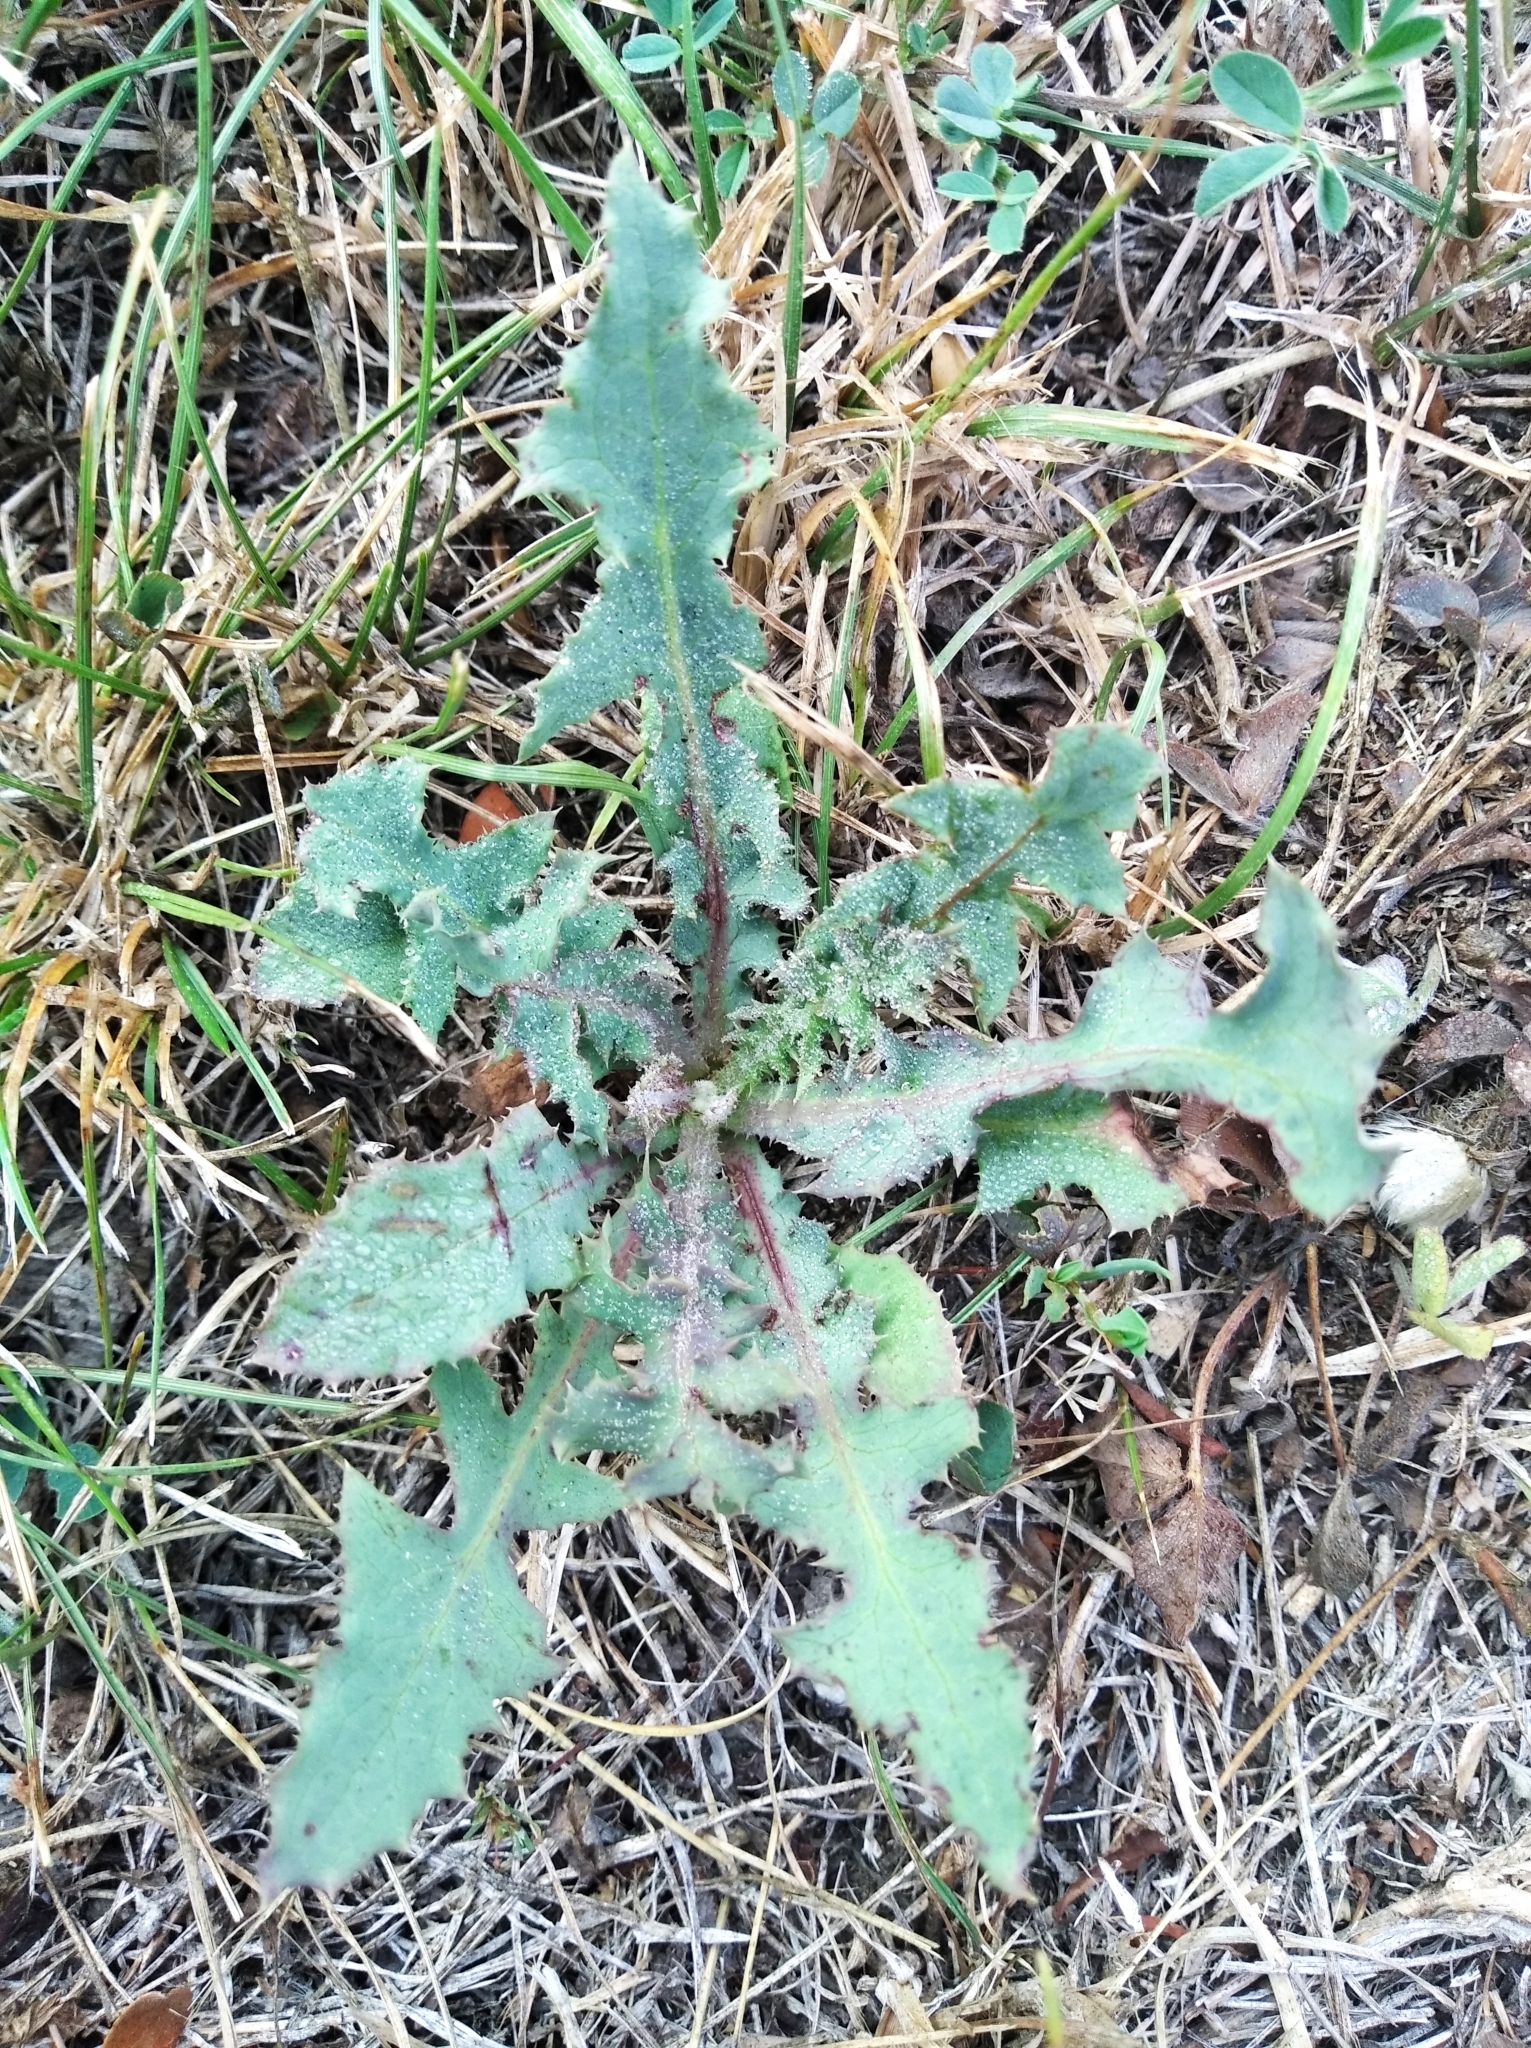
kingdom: Plantae
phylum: Tracheophyta
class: Magnoliopsida
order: Asterales
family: Asteraceae
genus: Sonchus
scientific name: Sonchus oleraceus
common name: Common sowthistle
